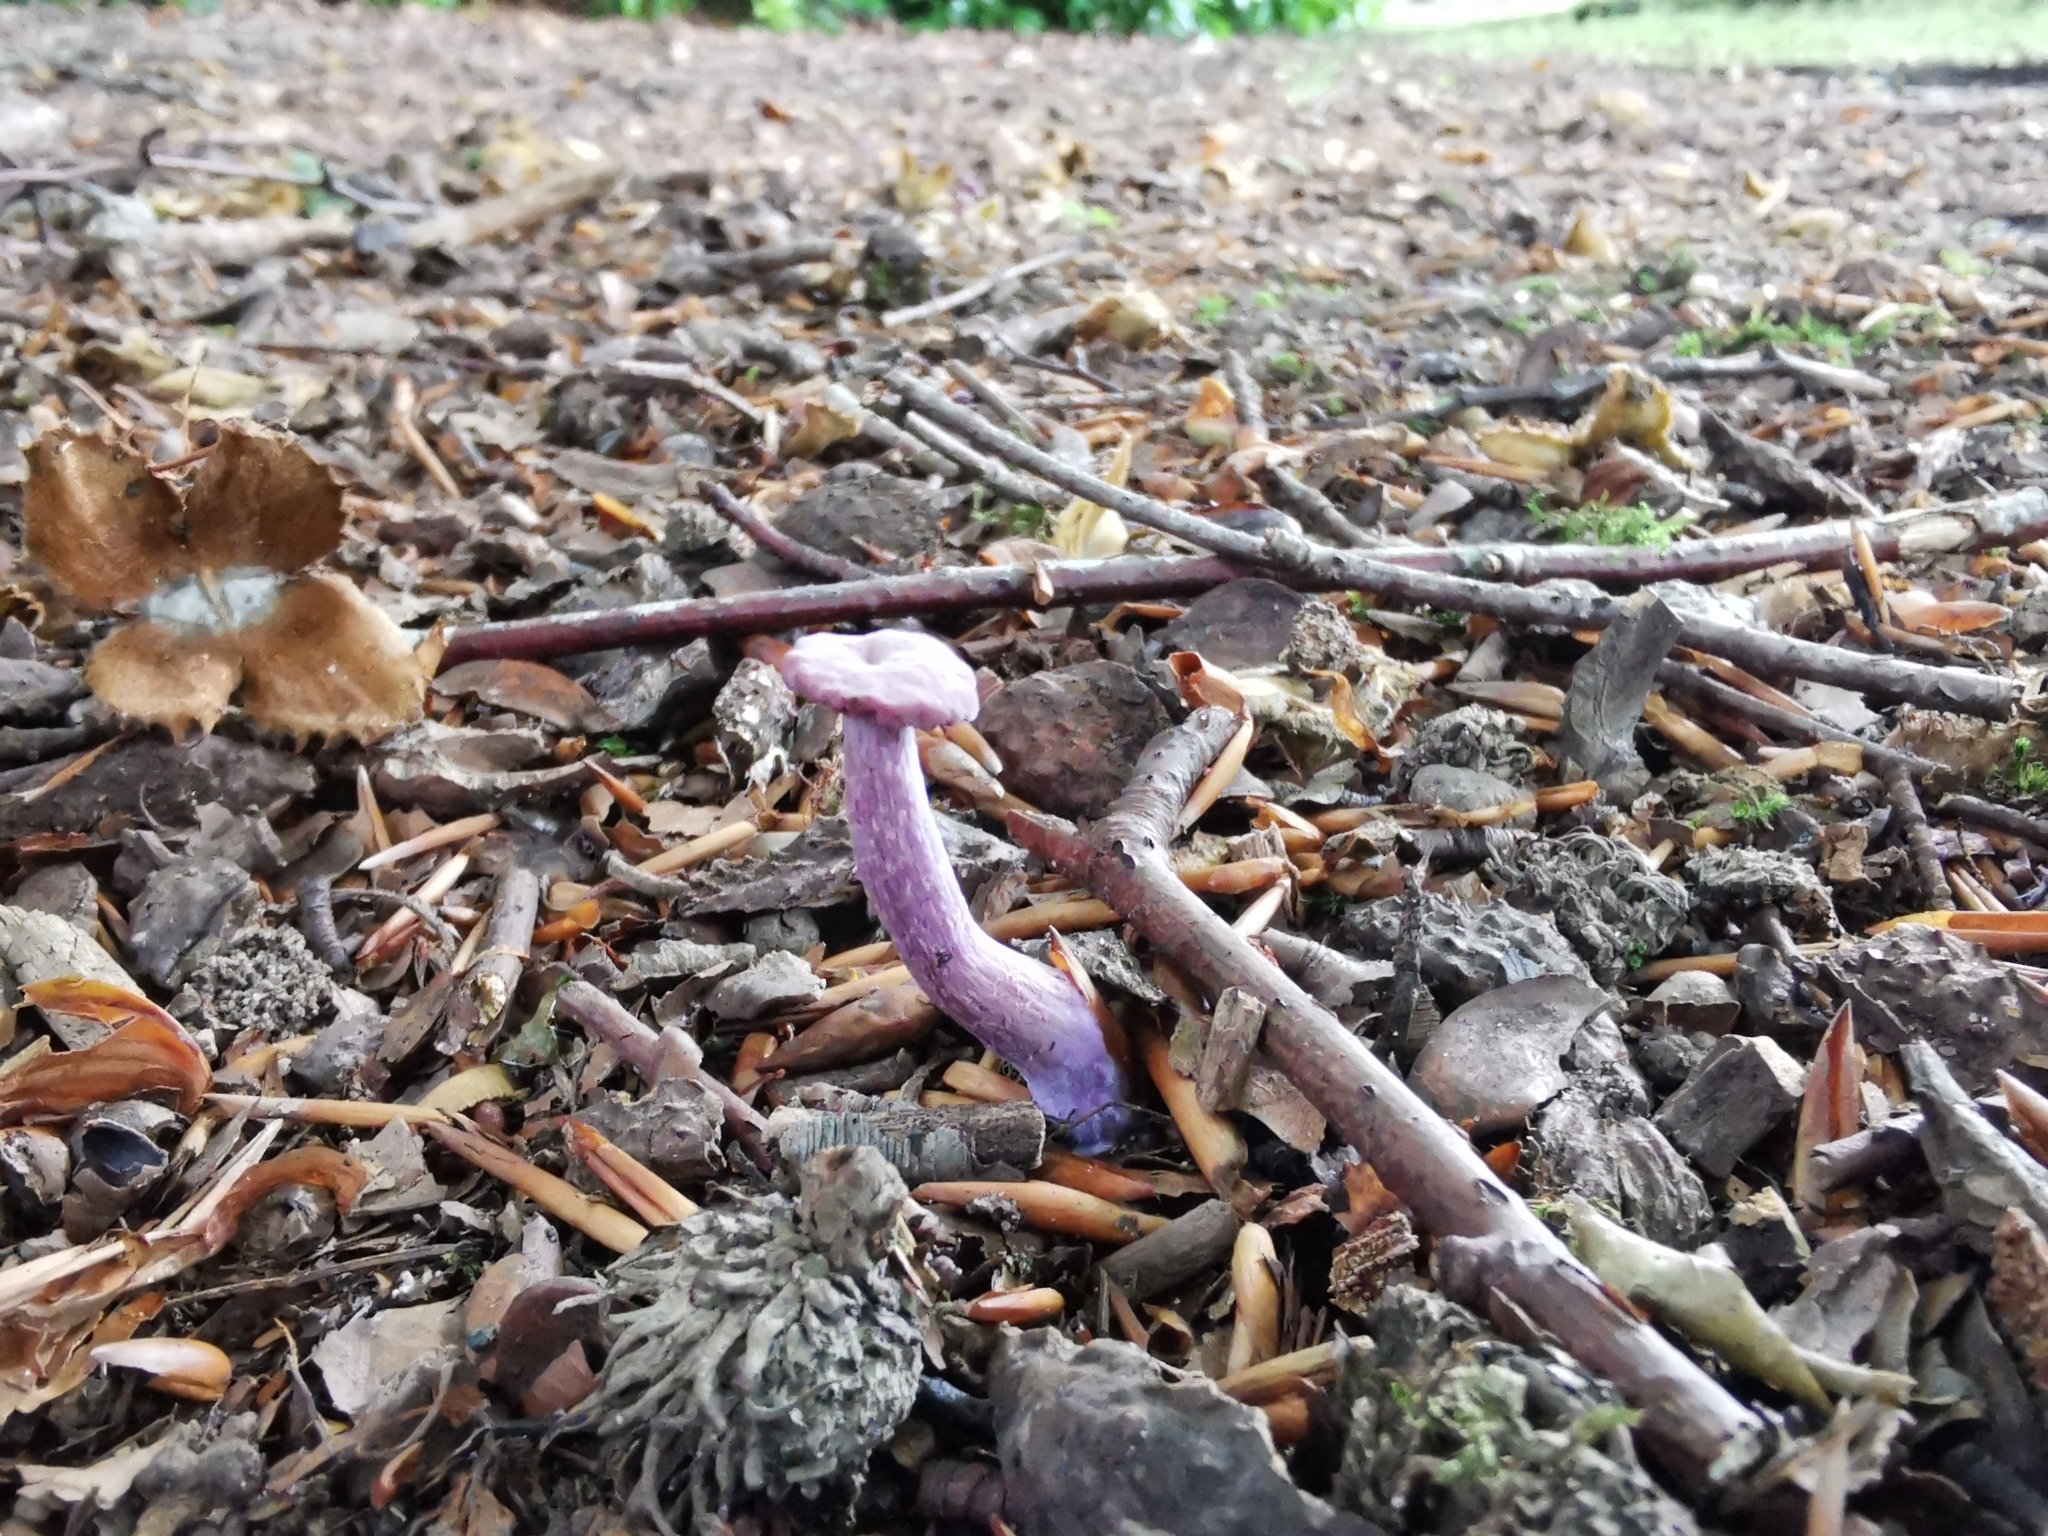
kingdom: Fungi
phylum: Basidiomycota
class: Agaricomycetes
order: Agaricales
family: Hydnangiaceae
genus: Laccaria
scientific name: Laccaria amethystina
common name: Amethyst deceiver
